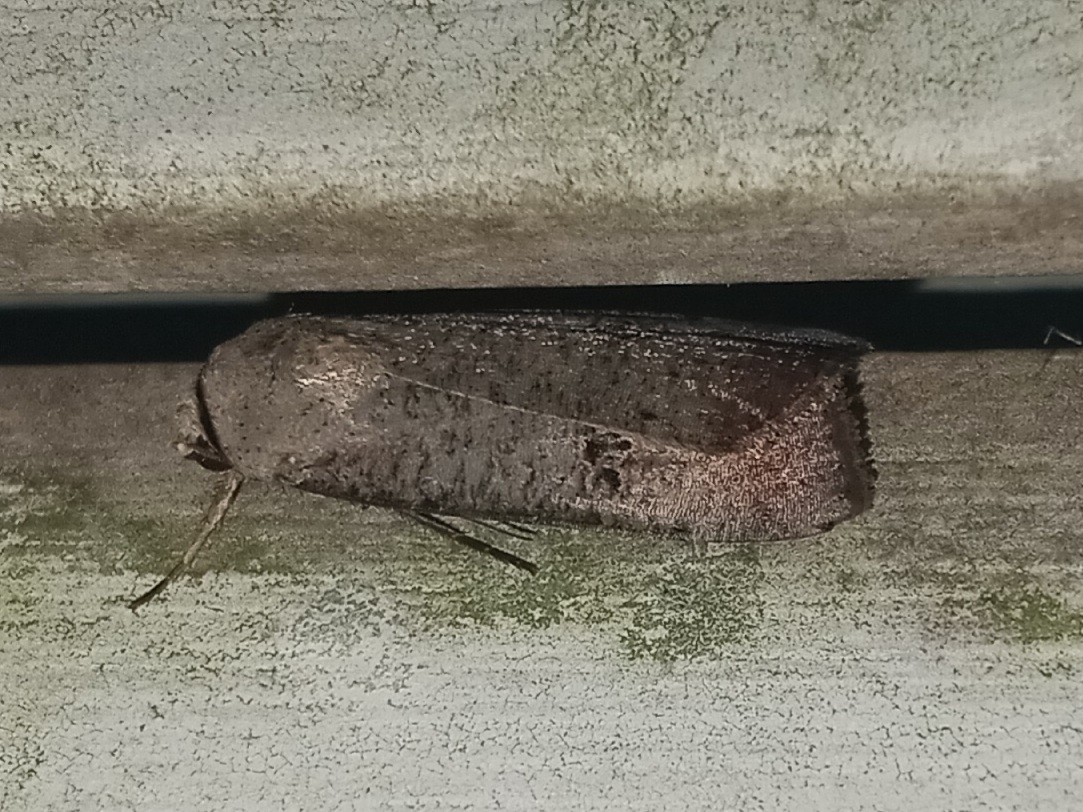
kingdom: Animalia
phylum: Arthropoda
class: Insecta
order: Lepidoptera
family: Noctuidae
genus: Anicla
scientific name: Anicla infecta
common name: Green cutworm
